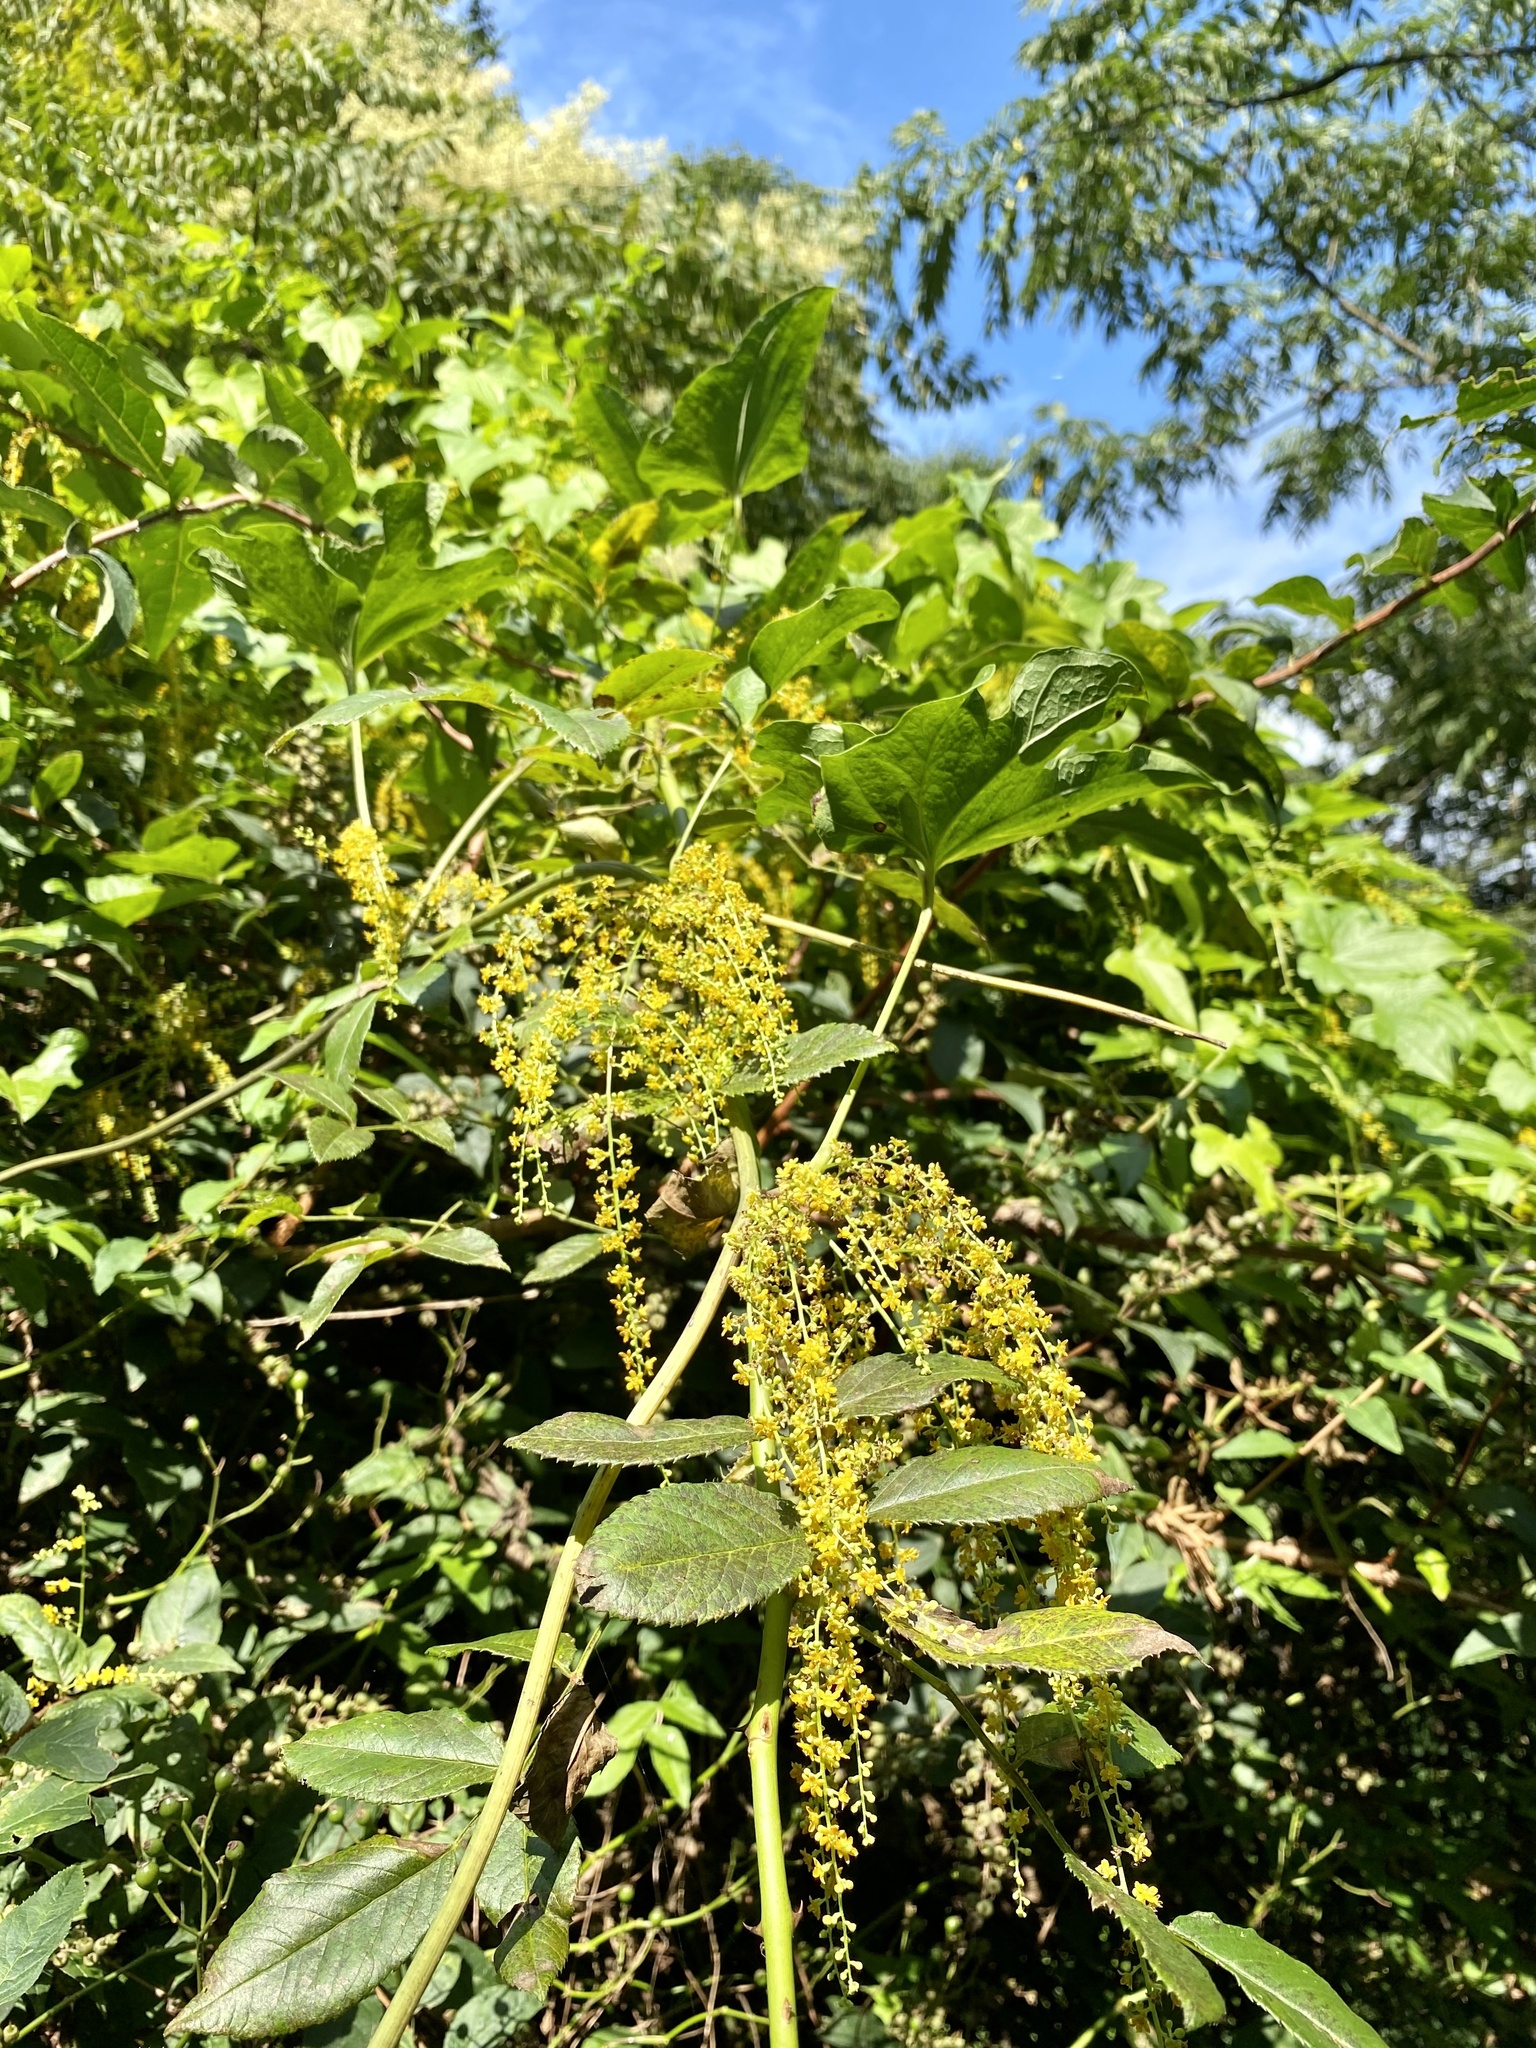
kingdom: Plantae
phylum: Tracheophyta
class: Liliopsida
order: Dioscoreales
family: Dioscoreaceae
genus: Dioscorea
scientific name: Dioscorea quinquelobata
